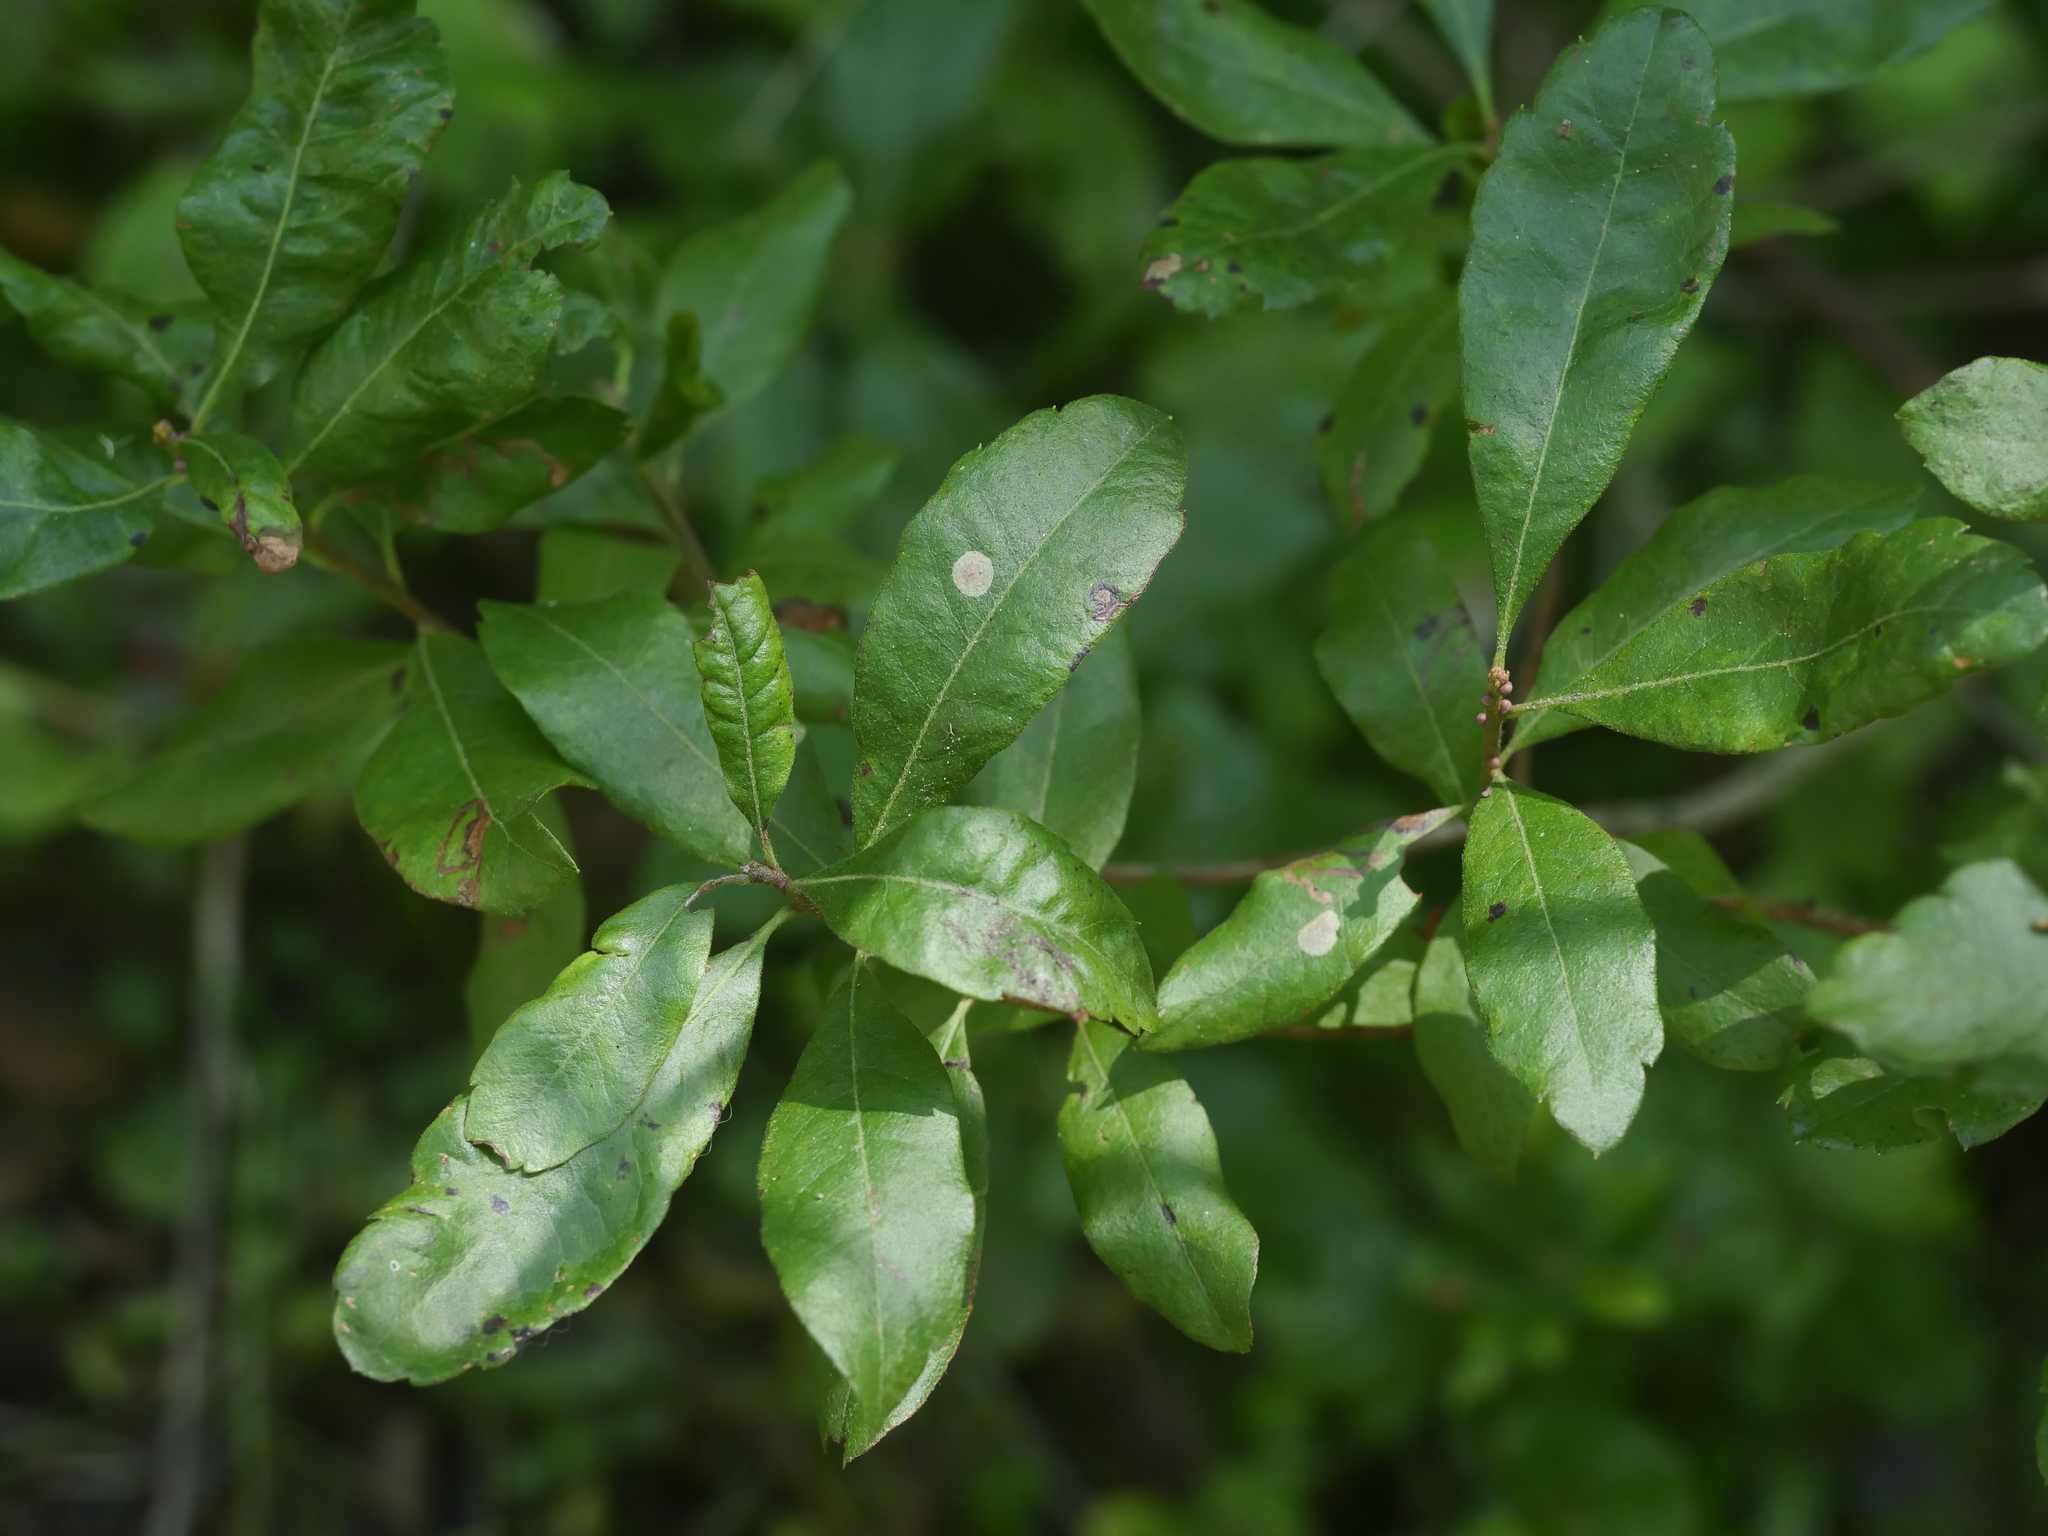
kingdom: Plantae
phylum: Tracheophyta
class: Magnoliopsida
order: Fagales
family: Myricaceae
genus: Morella
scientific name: Morella pensylvanica
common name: Northern bayberry
